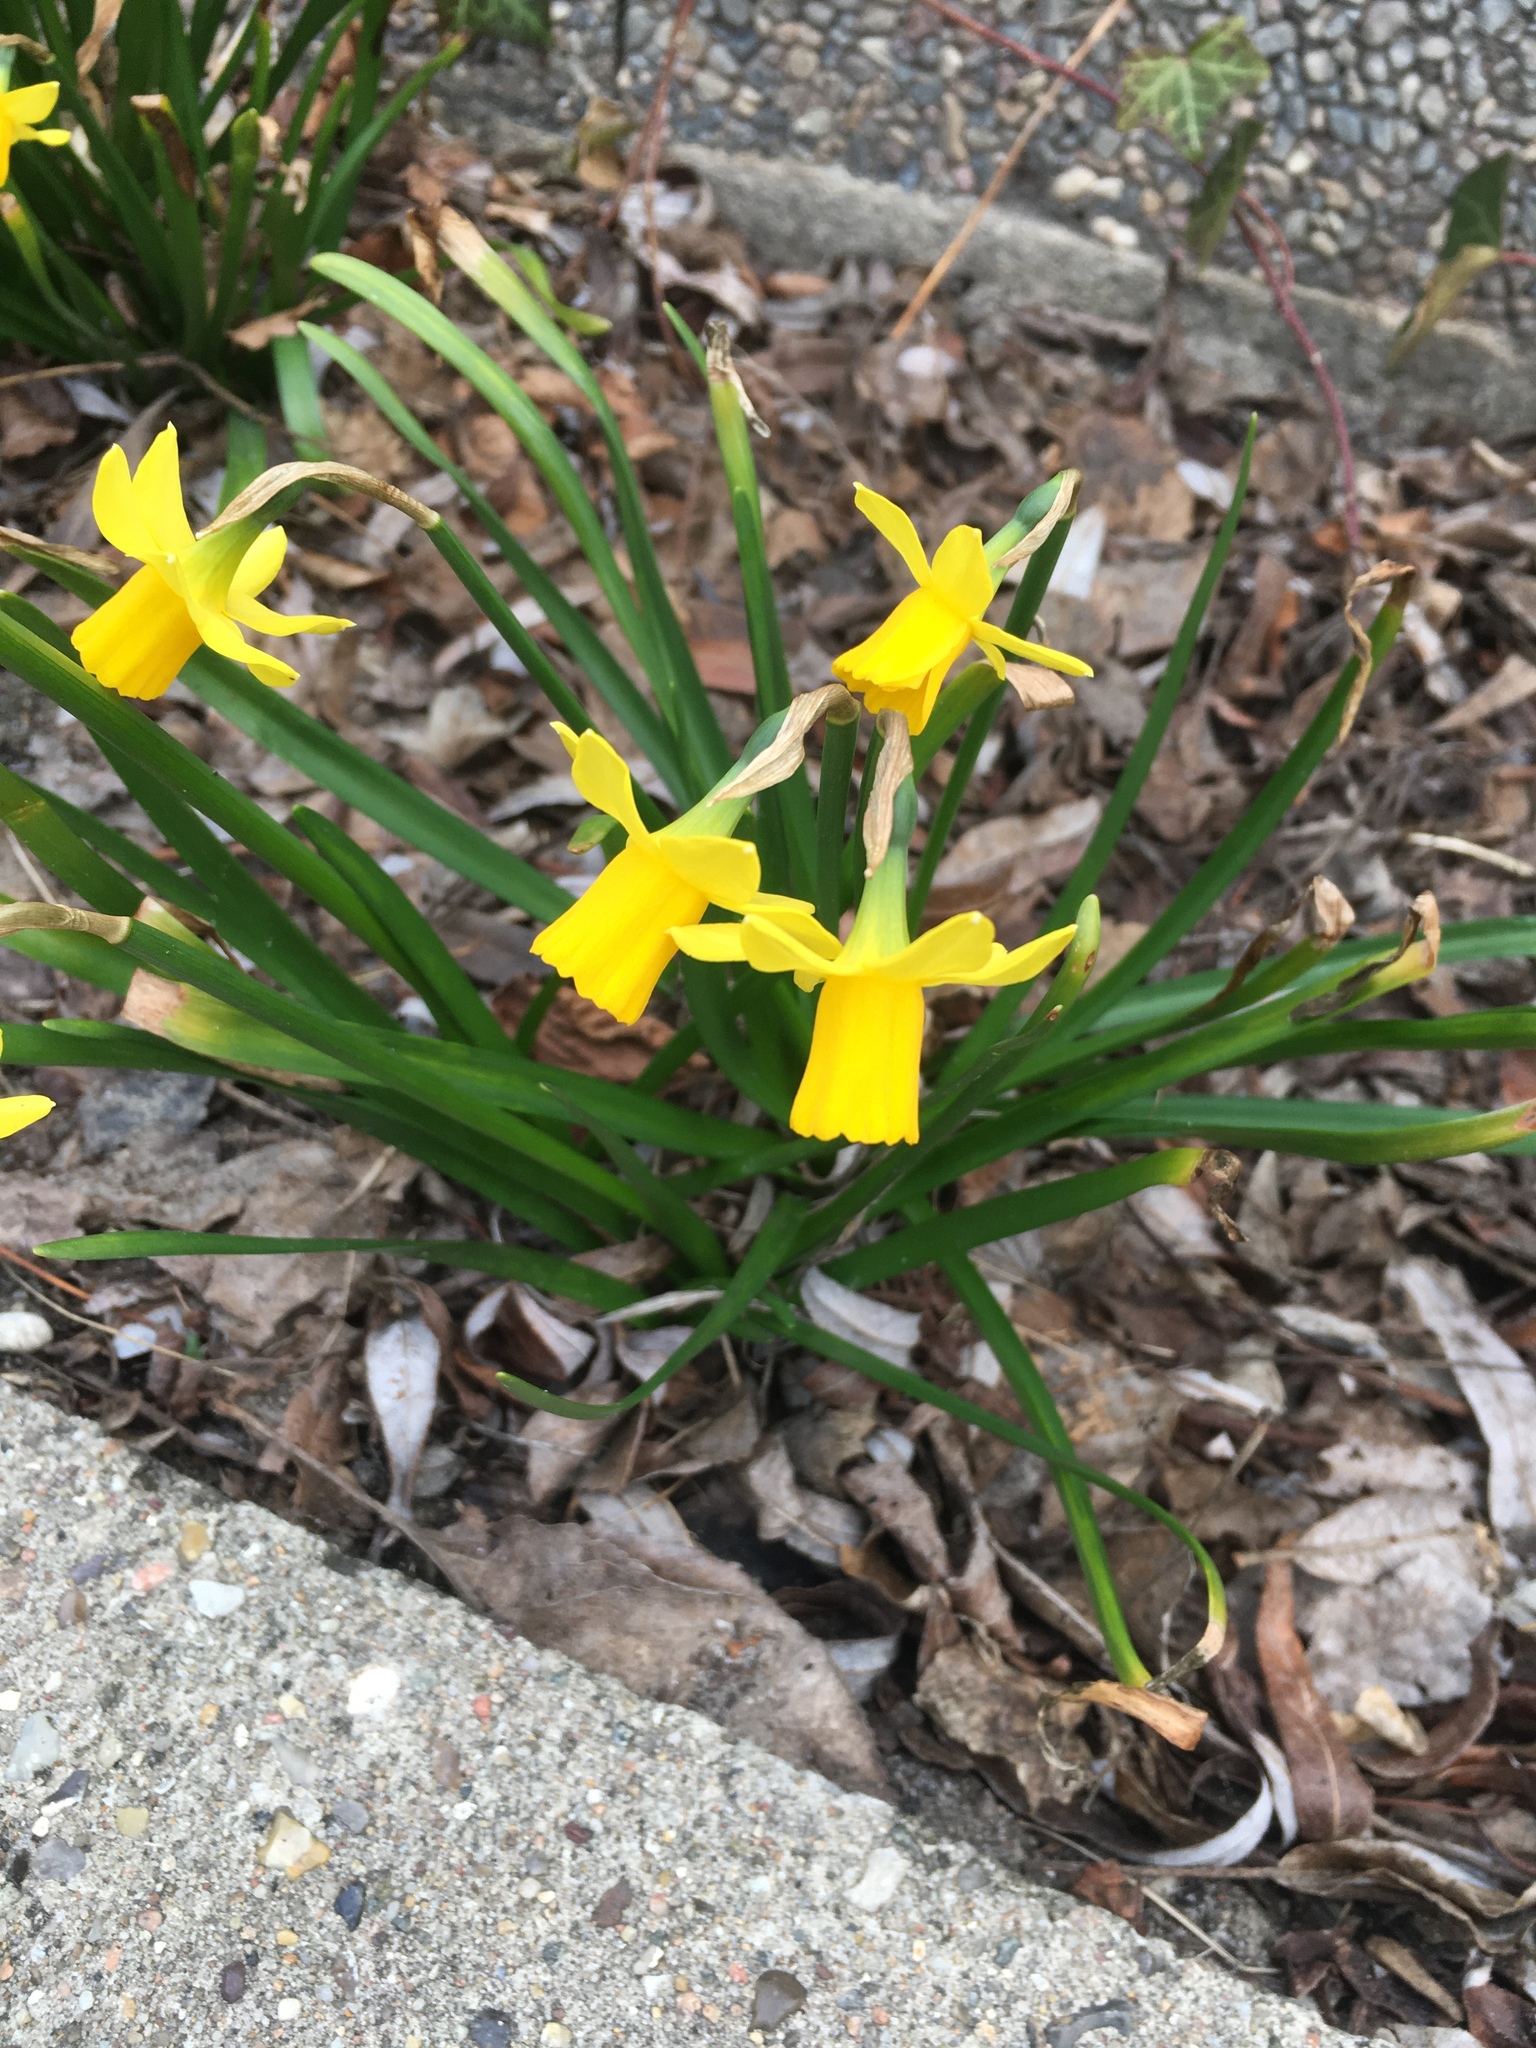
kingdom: Plantae
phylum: Tracheophyta
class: Liliopsida
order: Asparagales
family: Amaryllidaceae
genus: Narcissus
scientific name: Narcissus pseudonarcissus
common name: Daffodil
